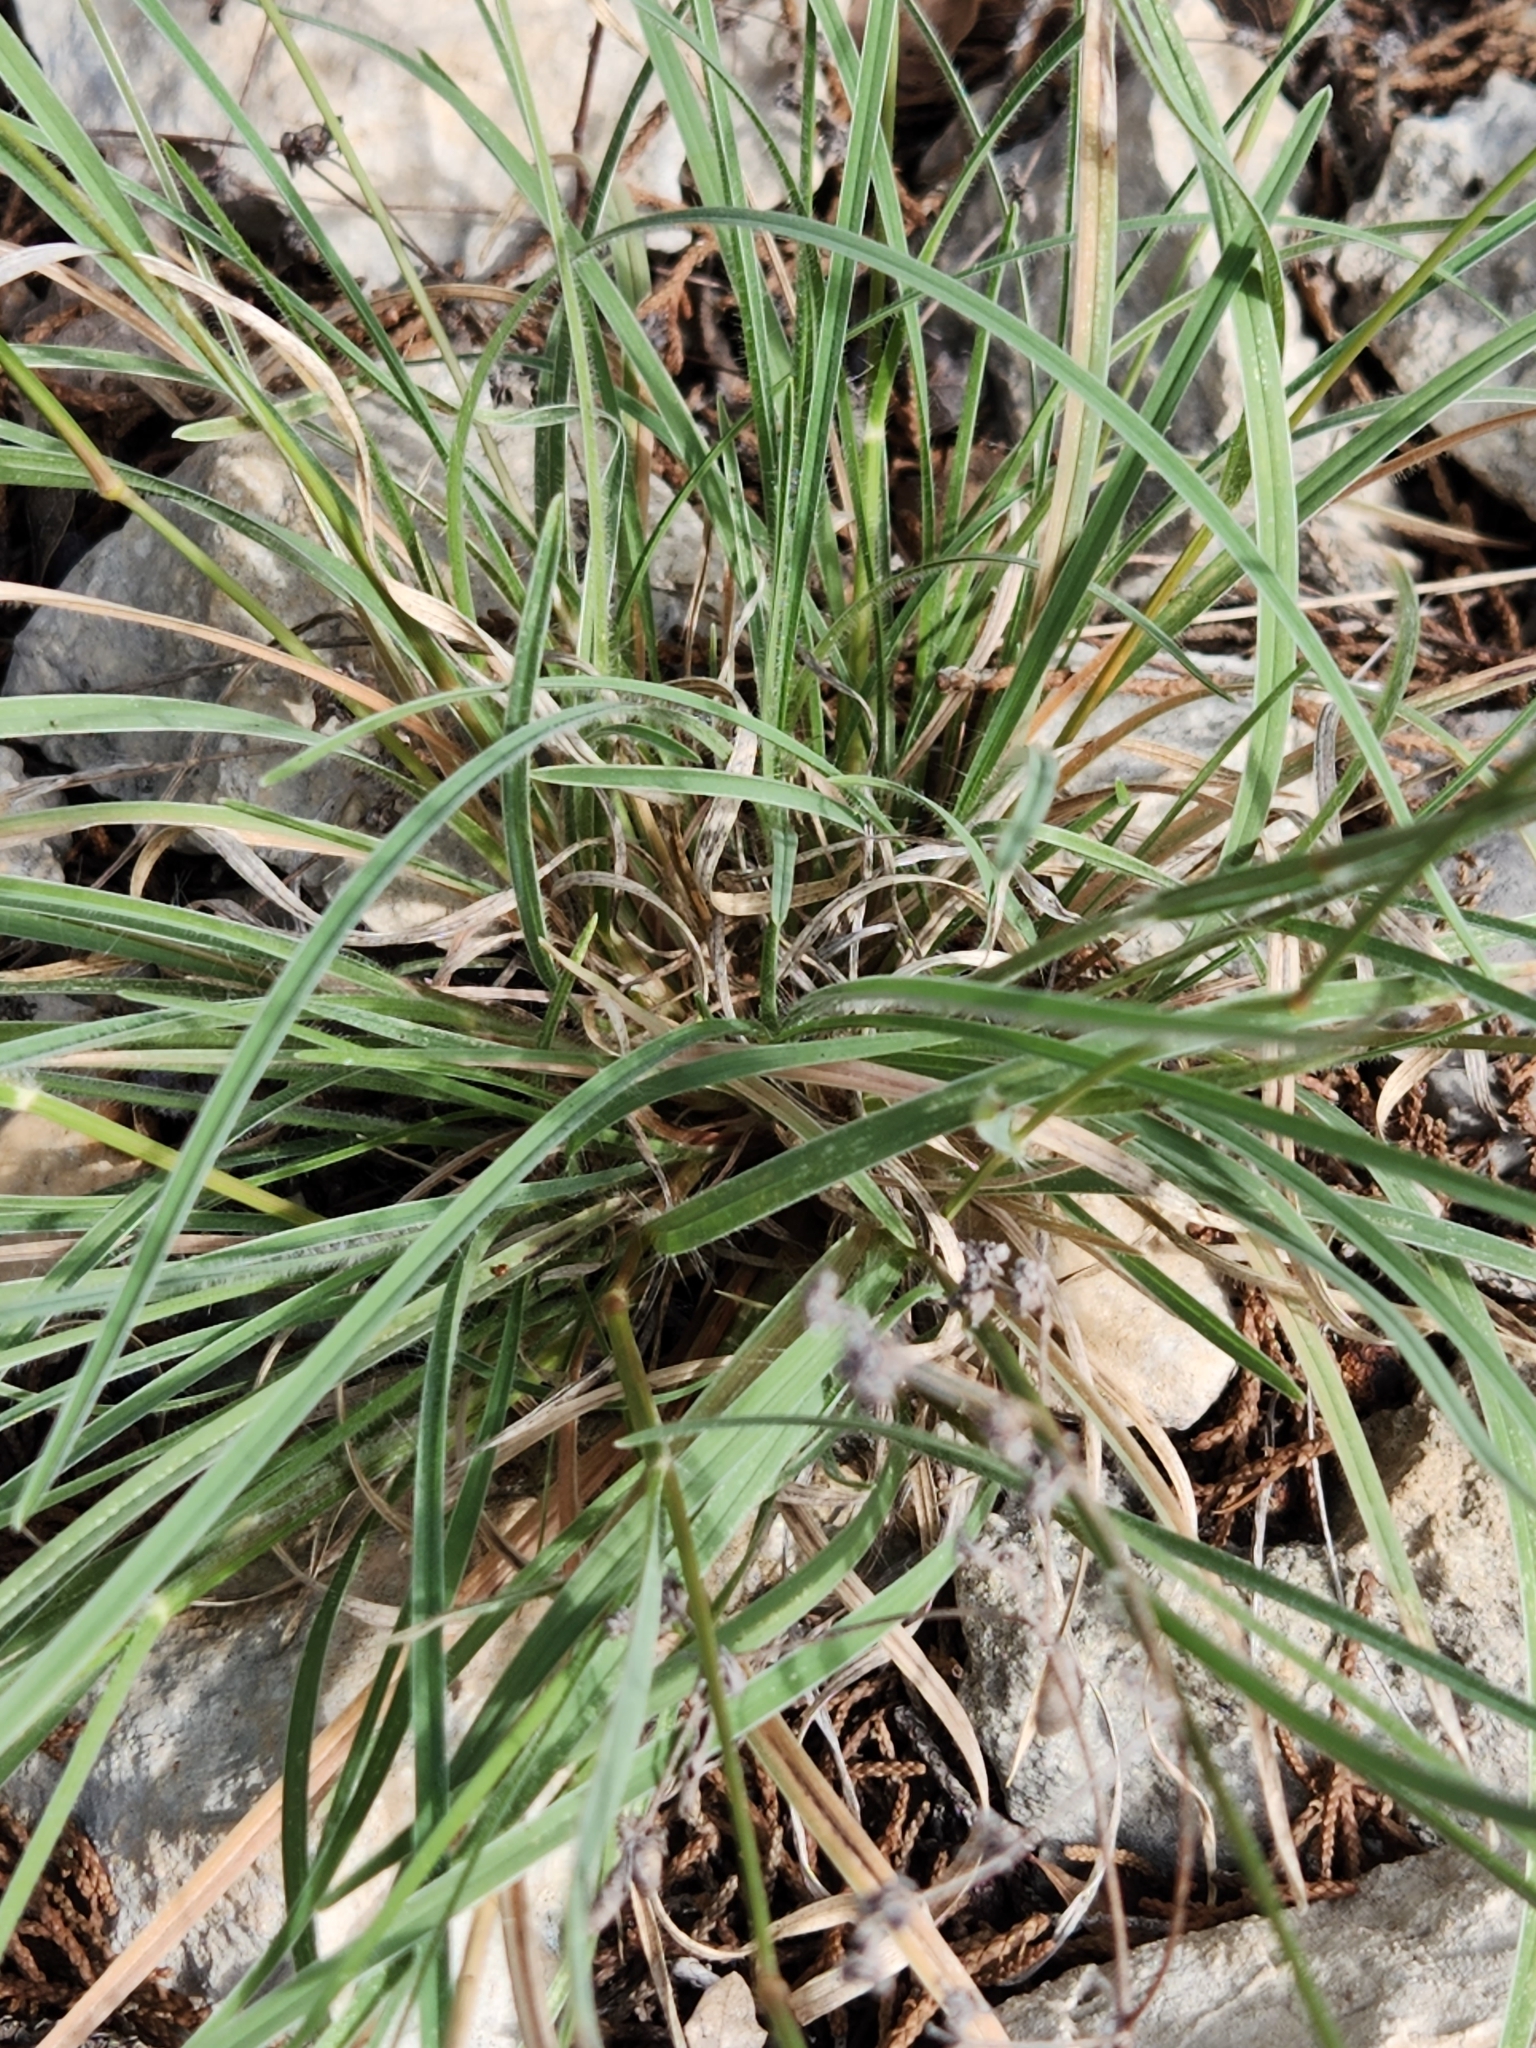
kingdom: Plantae
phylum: Tracheophyta
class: Liliopsida
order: Poales
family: Poaceae
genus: Erioneuron
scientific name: Erioneuron pilosum
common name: Hairy woolly grass
